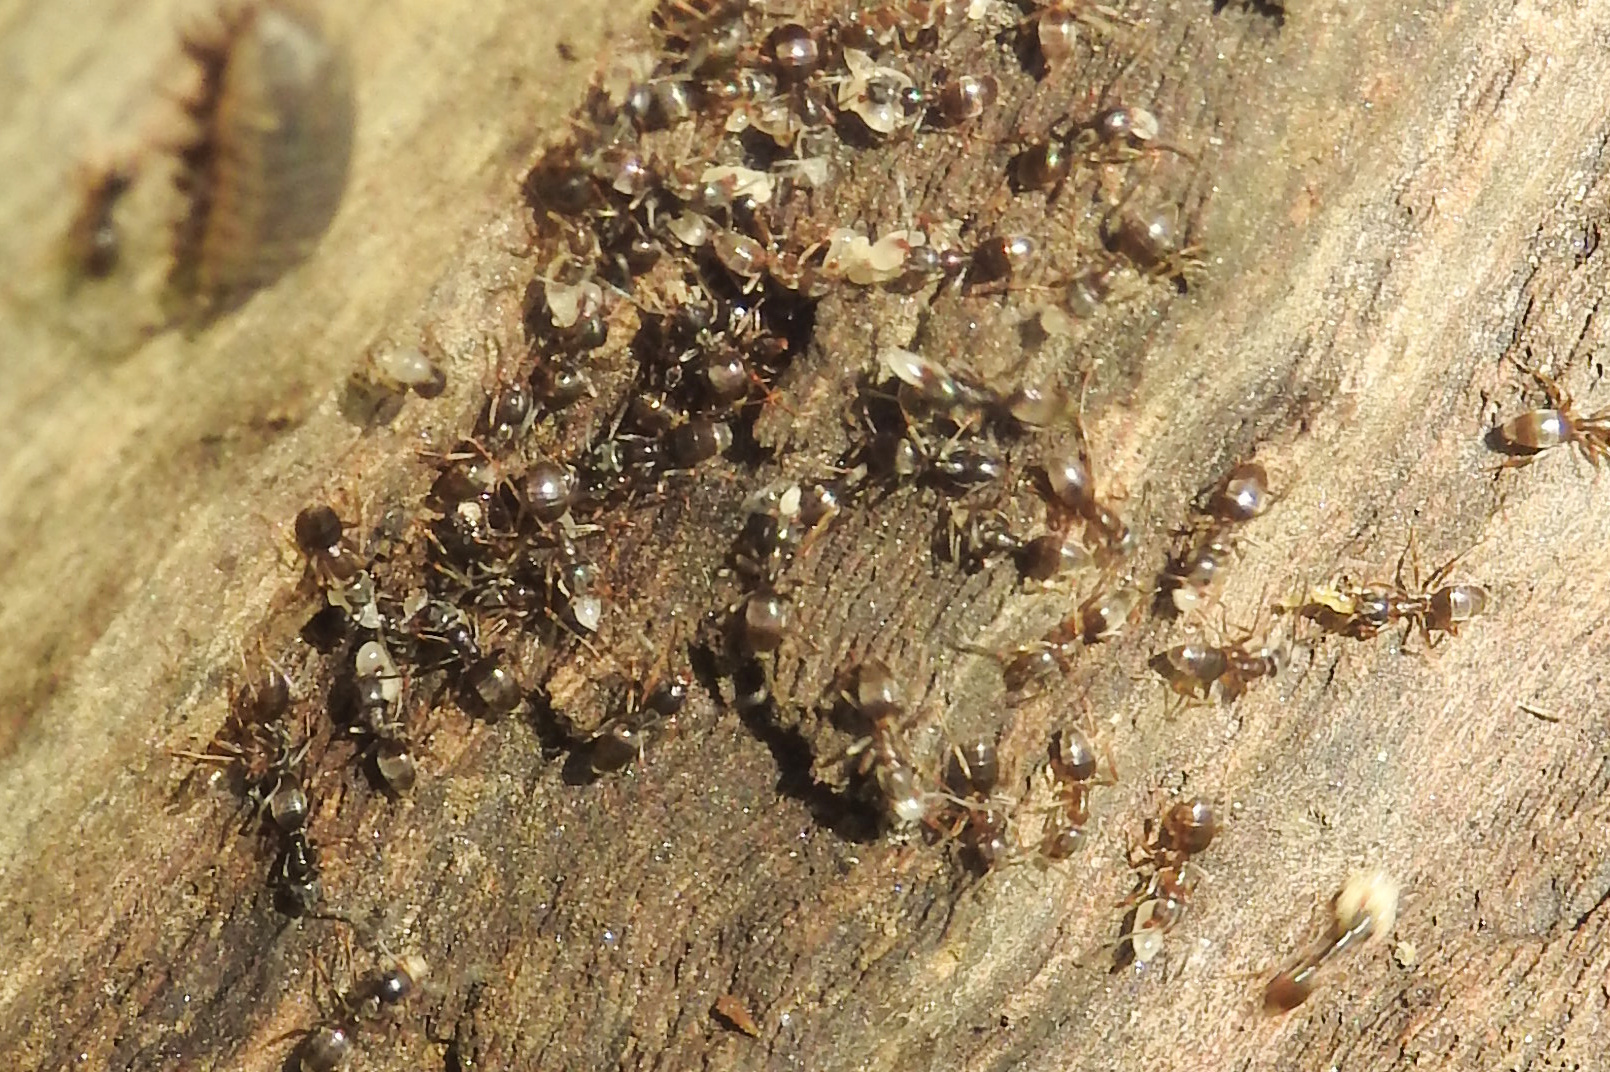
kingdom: Animalia
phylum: Arthropoda
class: Insecta
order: Hymenoptera
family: Formicidae
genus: Tapinoma
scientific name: Tapinoma sessile
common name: Odorous house ant
